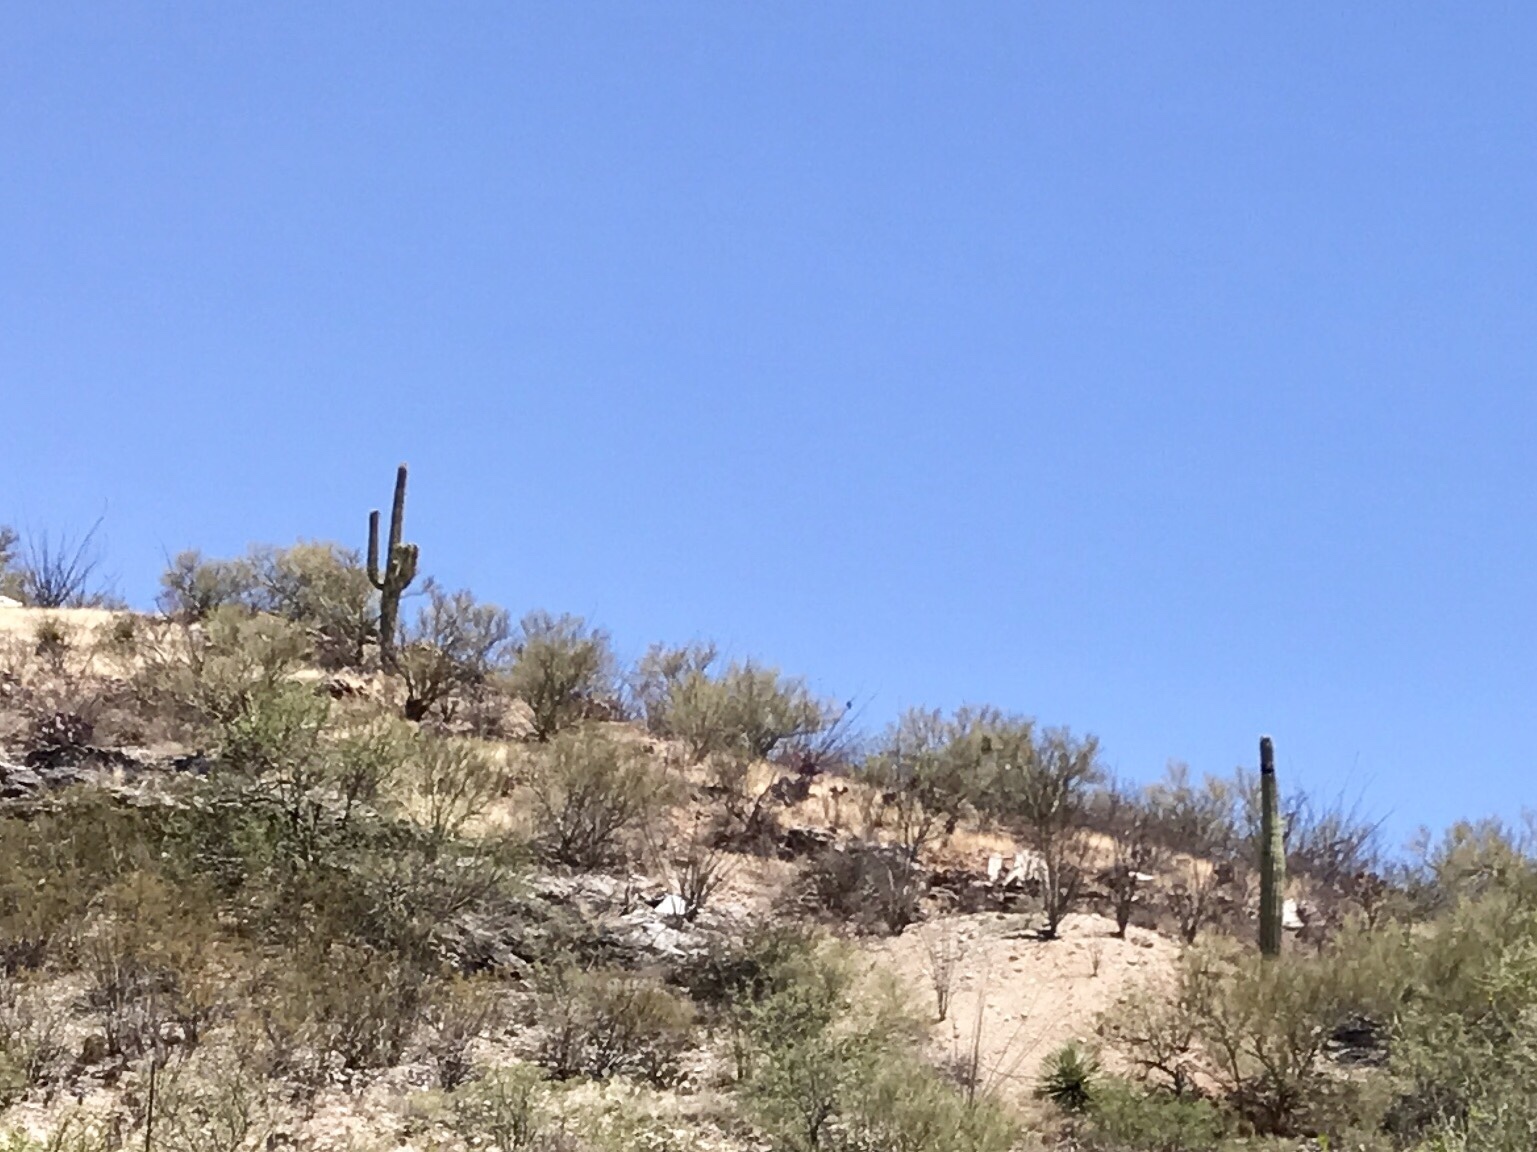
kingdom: Plantae
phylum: Tracheophyta
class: Magnoliopsida
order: Caryophyllales
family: Cactaceae
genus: Carnegiea
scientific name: Carnegiea gigantea
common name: Saguaro
